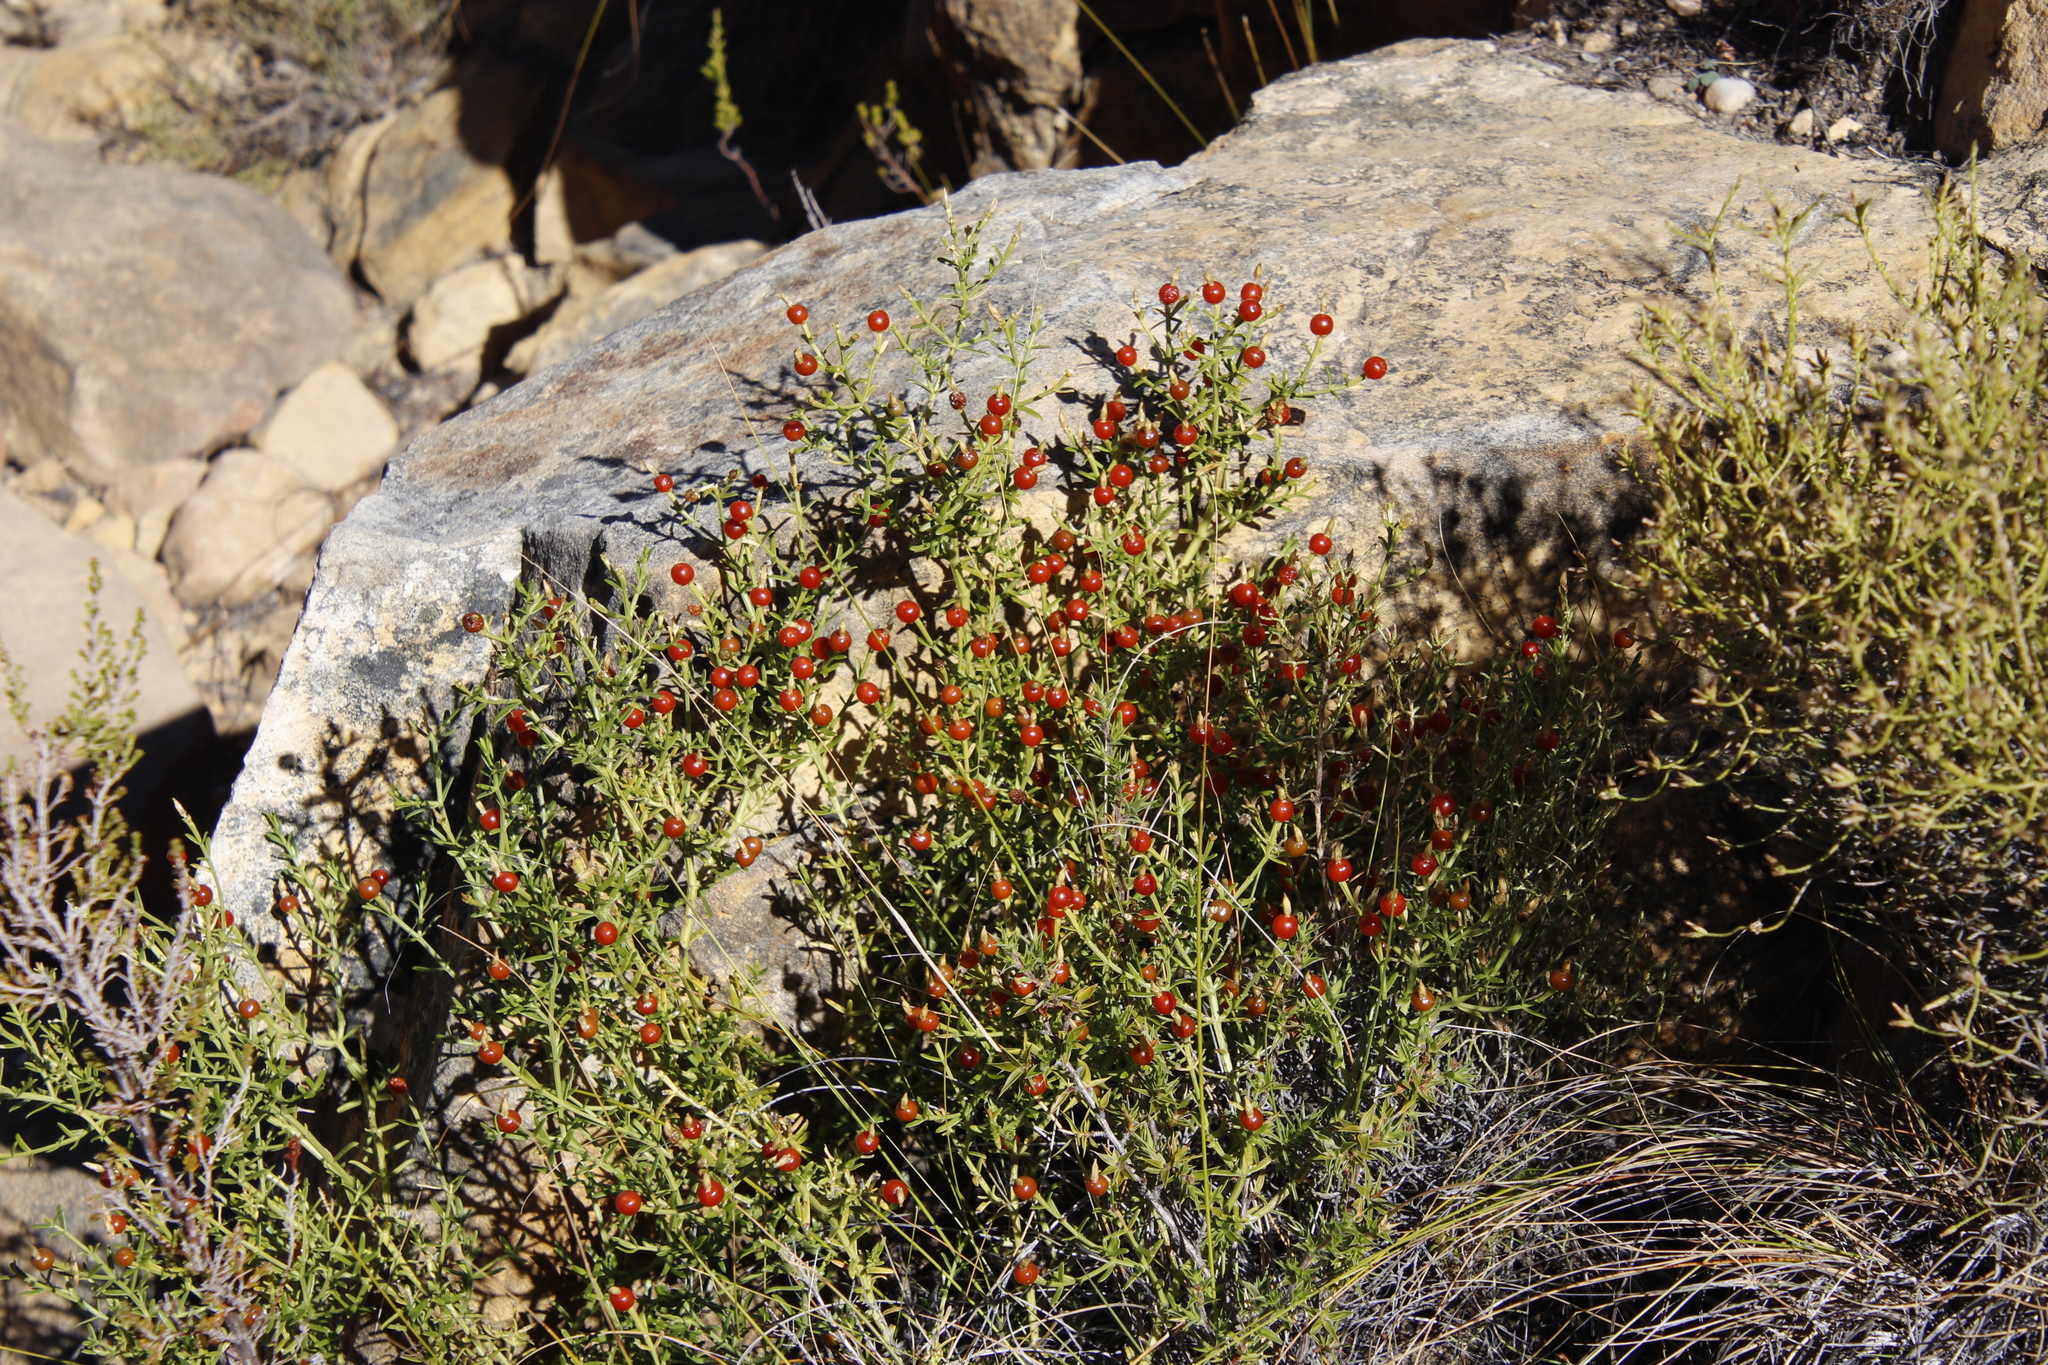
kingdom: Plantae
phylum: Tracheophyta
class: Magnoliopsida
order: Gentianales
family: Gentianaceae
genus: Chironia
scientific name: Chironia baccifera
